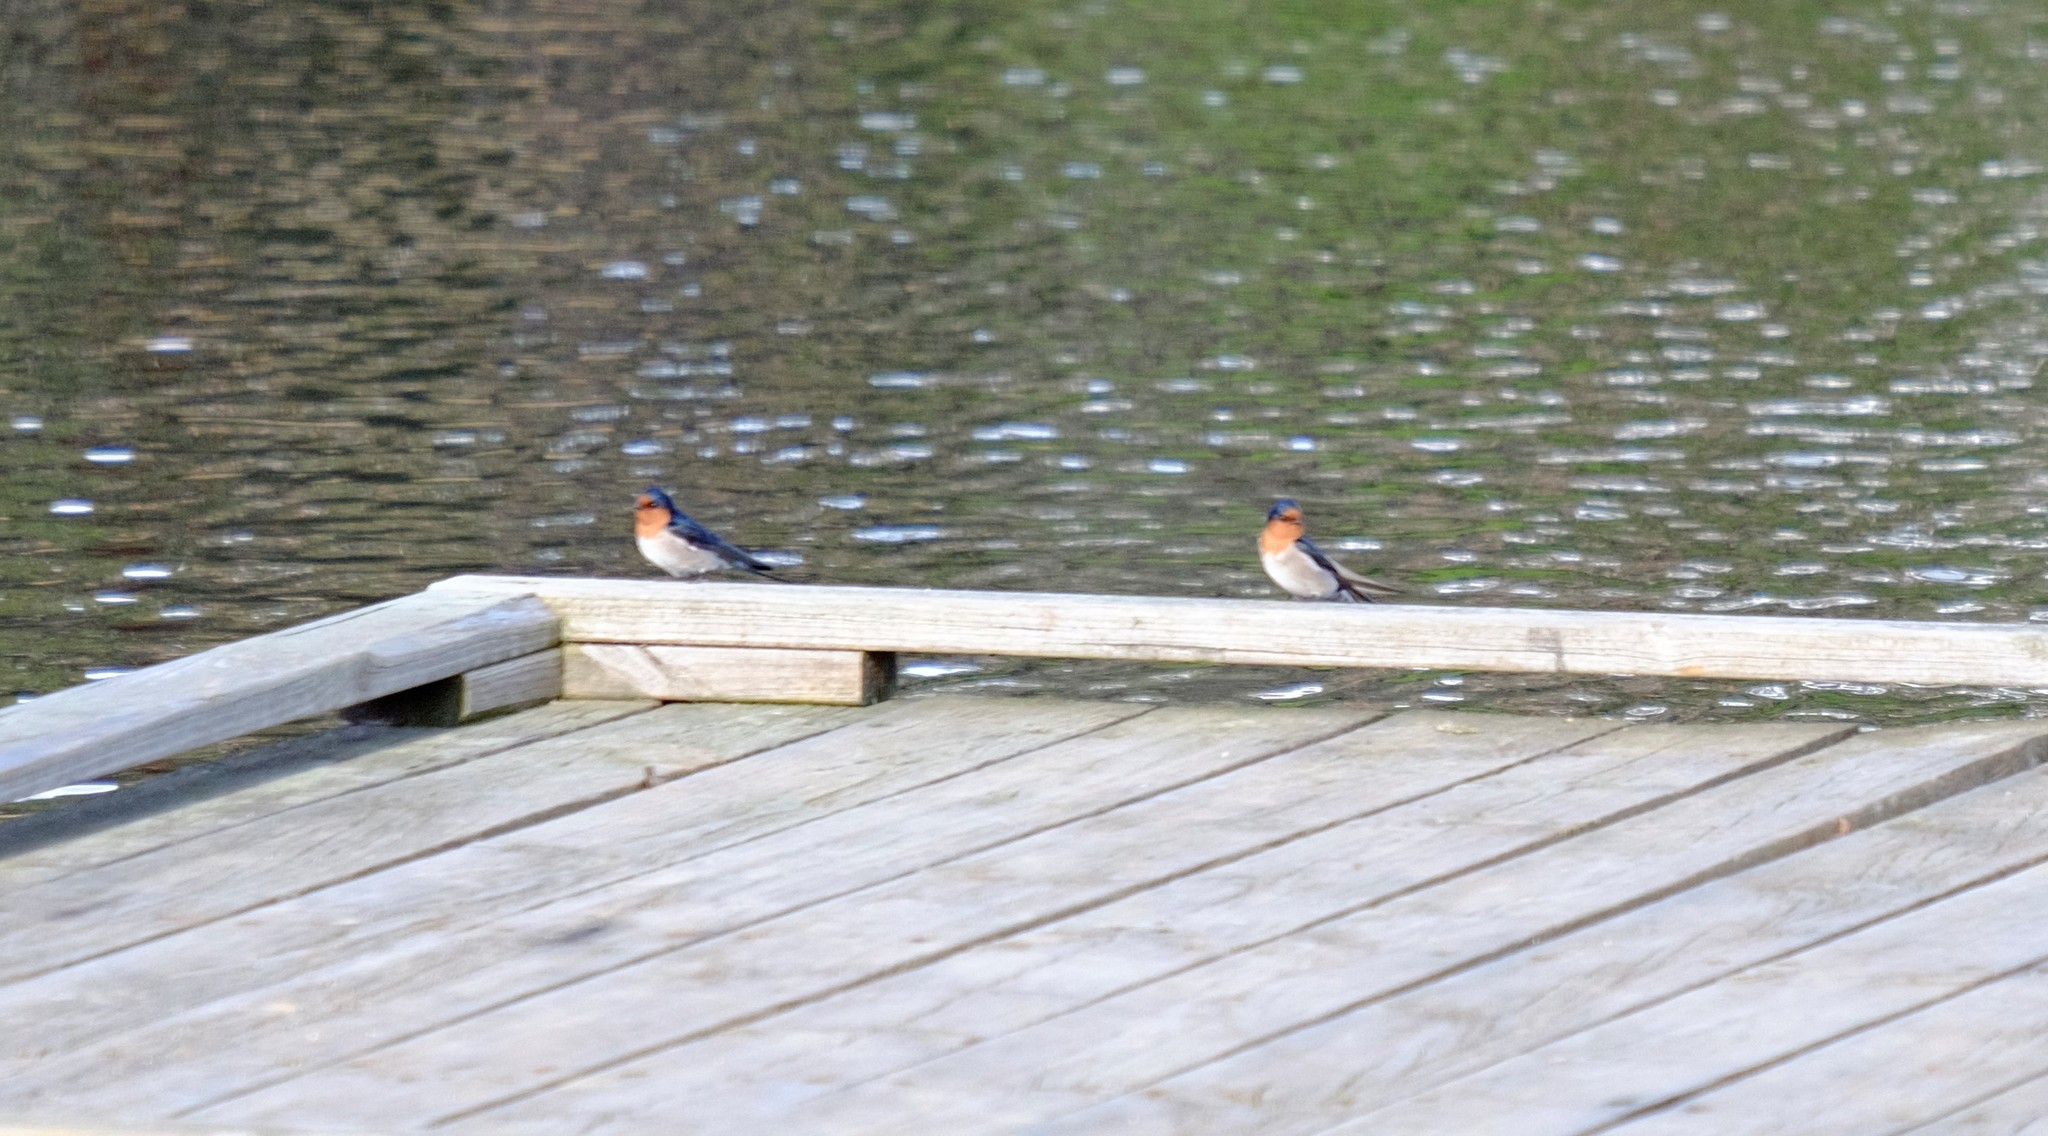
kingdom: Animalia
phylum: Chordata
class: Aves
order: Passeriformes
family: Hirundinidae
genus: Hirundo
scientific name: Hirundo neoxena
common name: Welcome swallow
